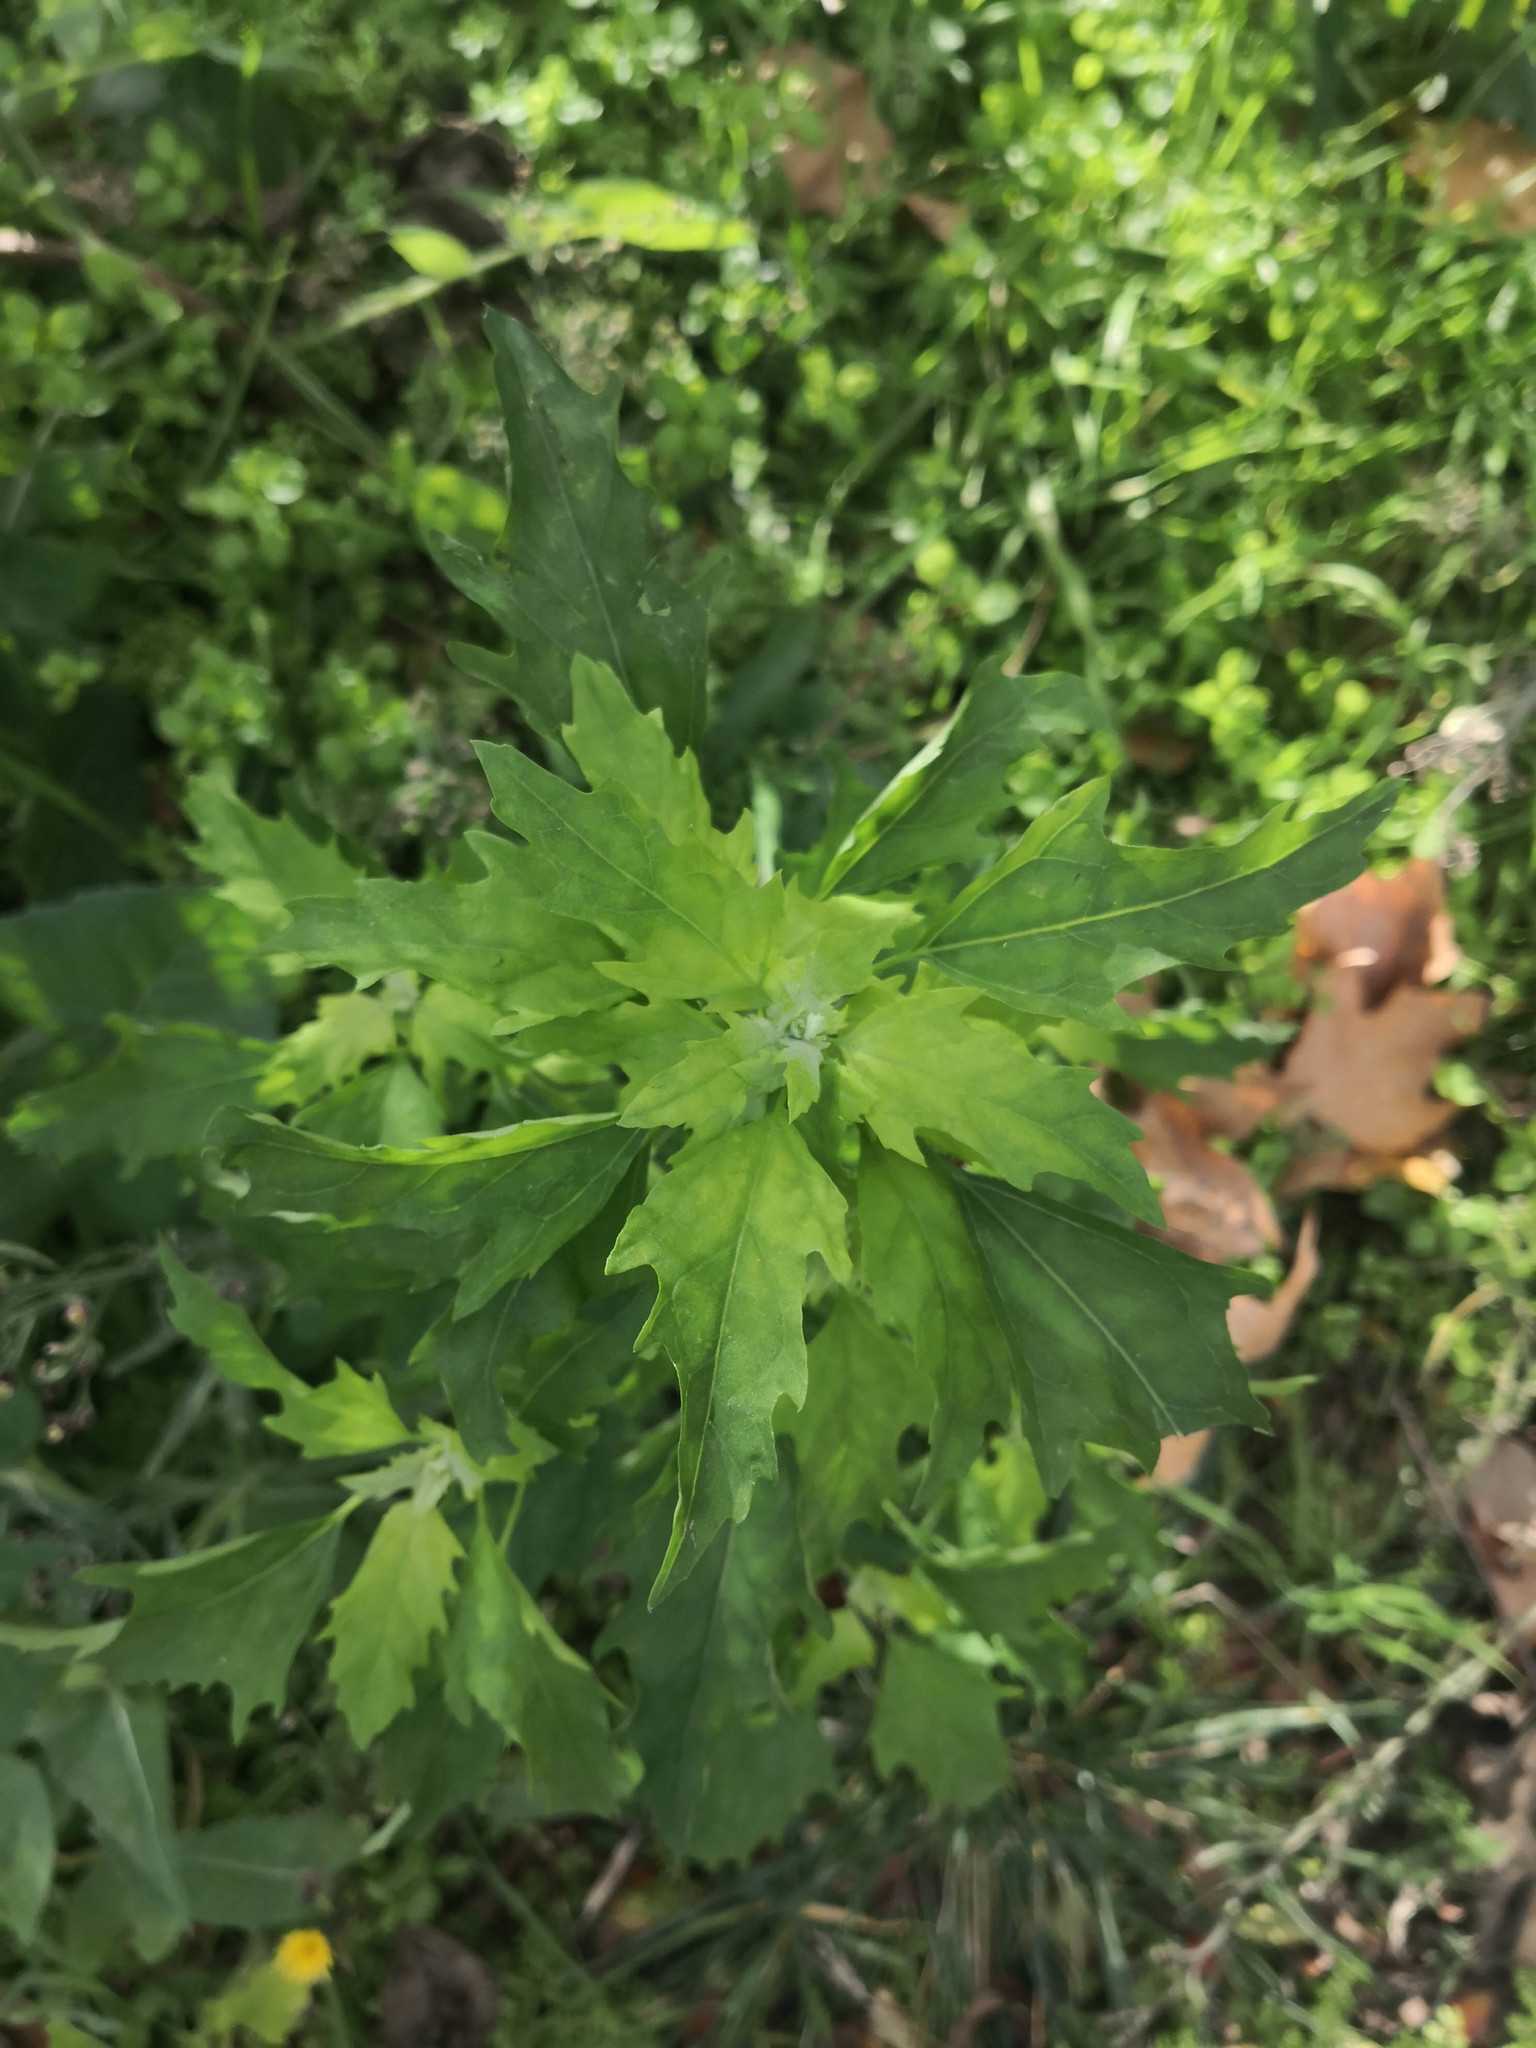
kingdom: Plantae
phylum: Tracheophyta
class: Magnoliopsida
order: Caryophyllales
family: Amaranthaceae
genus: Chenopodium
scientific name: Chenopodium album
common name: Fat-hen
